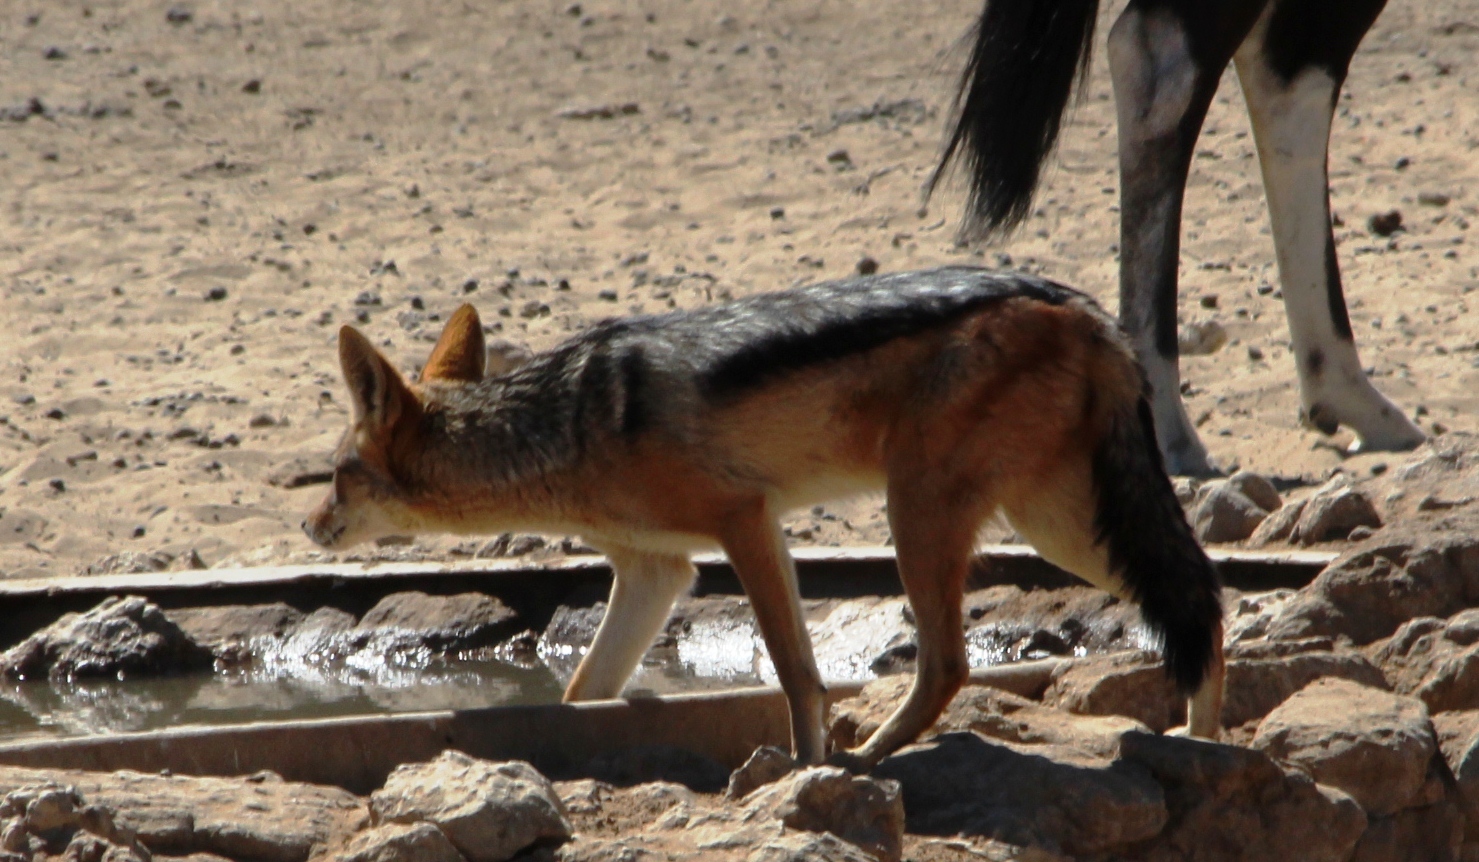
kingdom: Animalia
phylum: Chordata
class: Mammalia
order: Carnivora
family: Canidae
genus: Lupulella
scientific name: Lupulella
